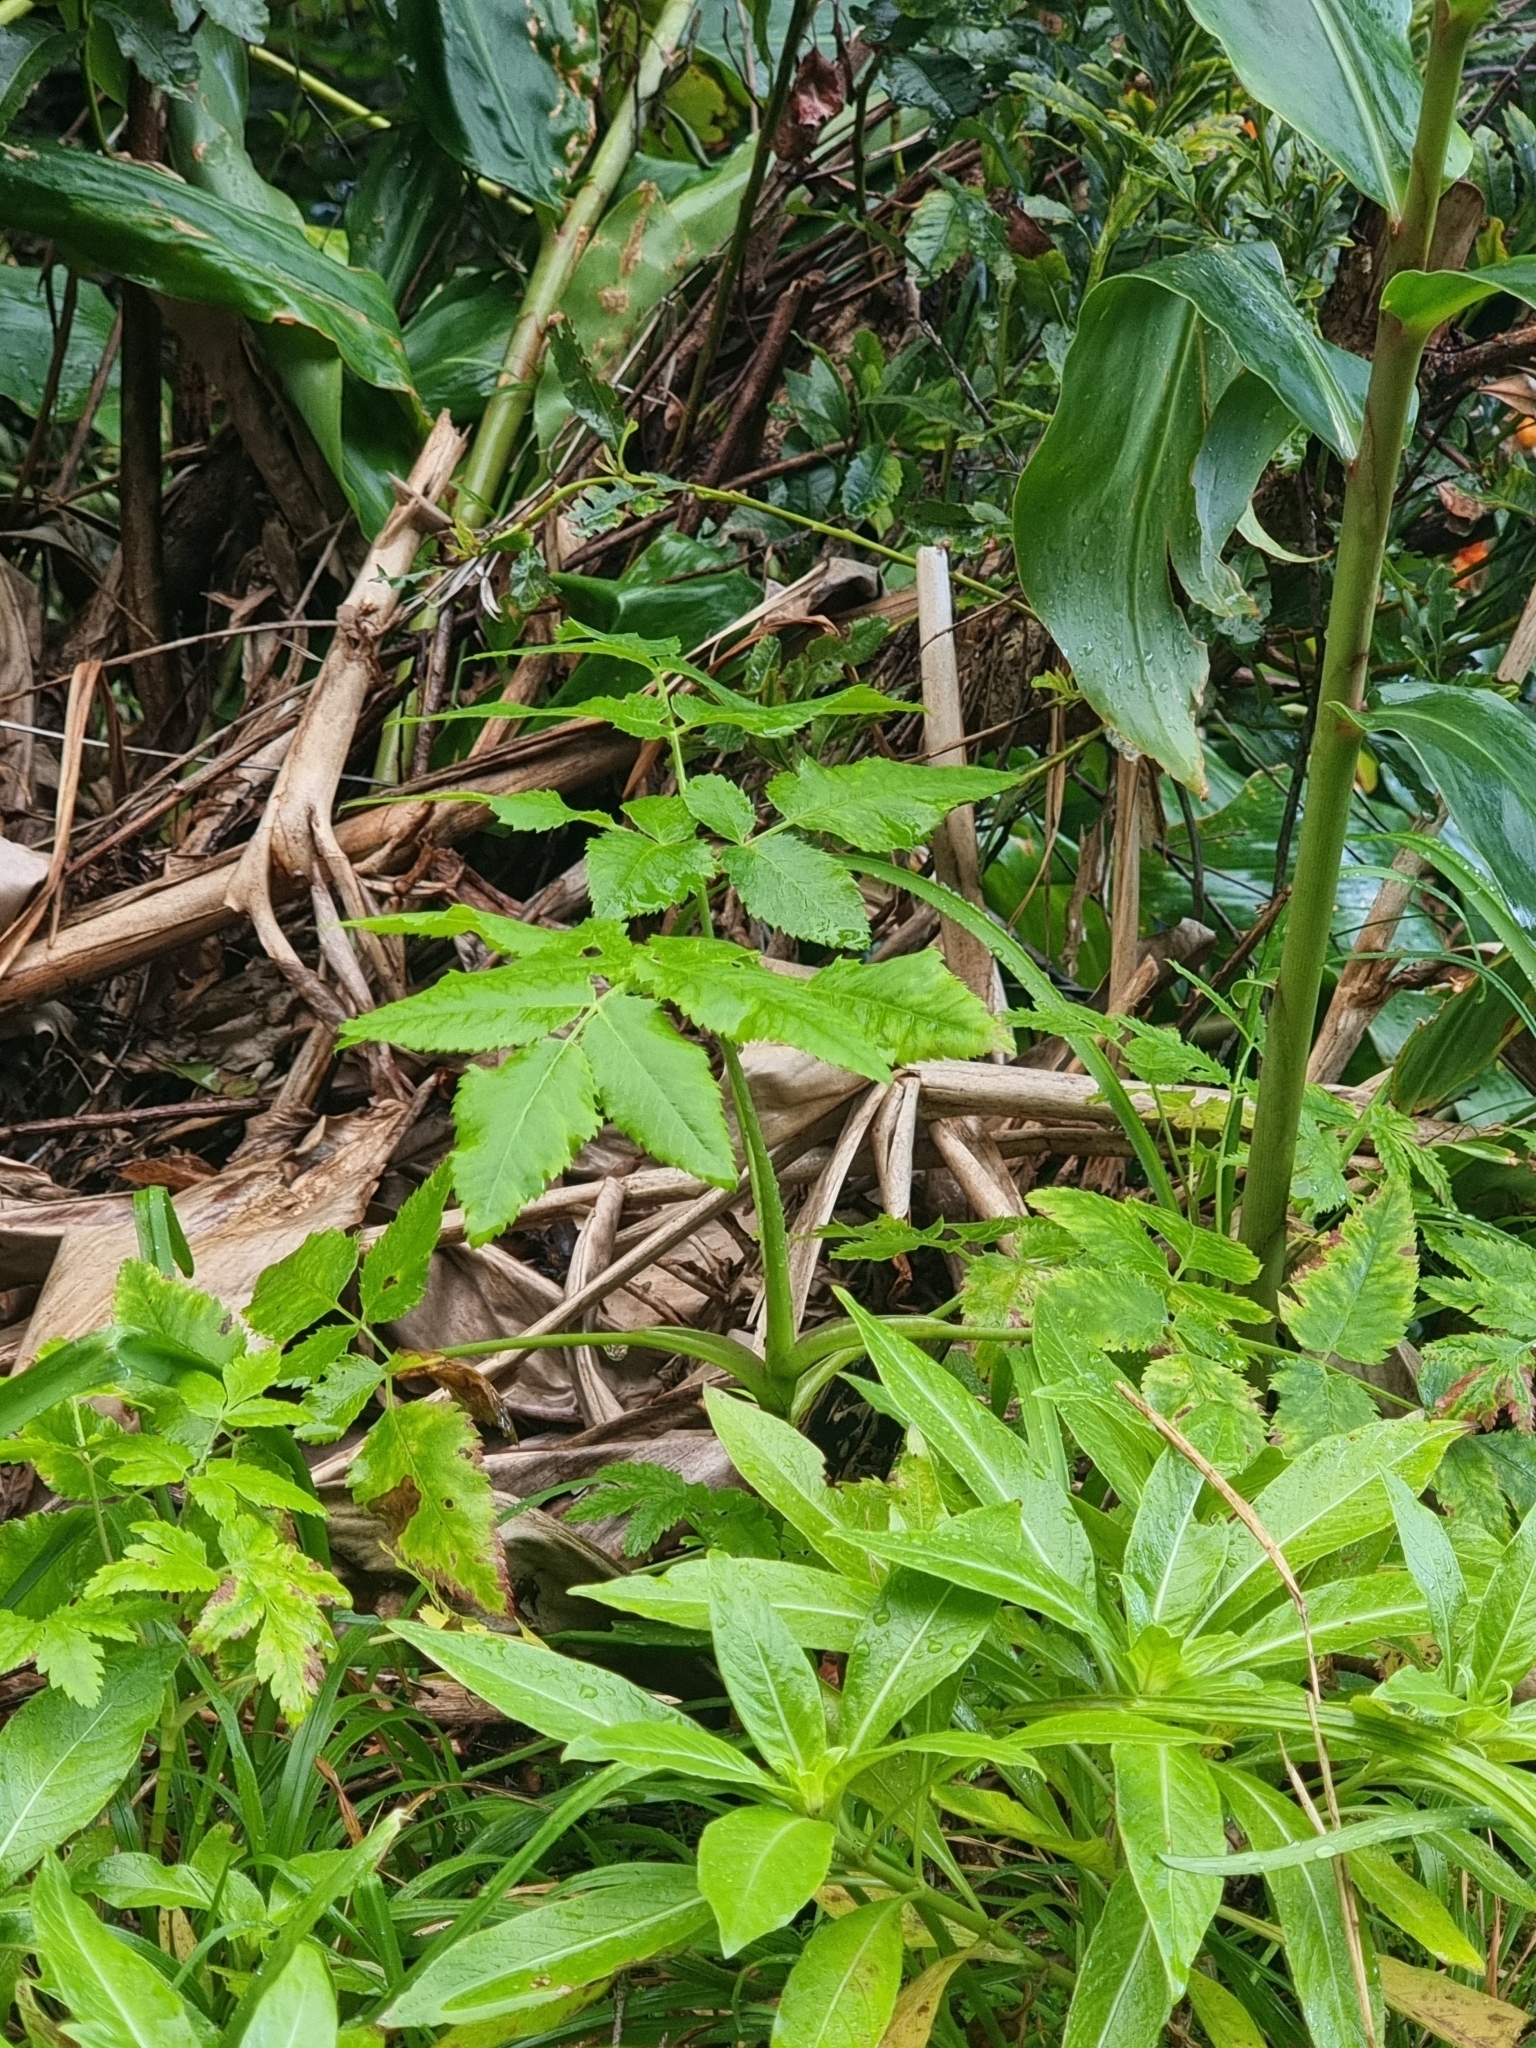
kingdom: Plantae
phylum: Tracheophyta
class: Magnoliopsida
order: Apiales
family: Apiaceae
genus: Daucus
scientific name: Daucus decipiens
